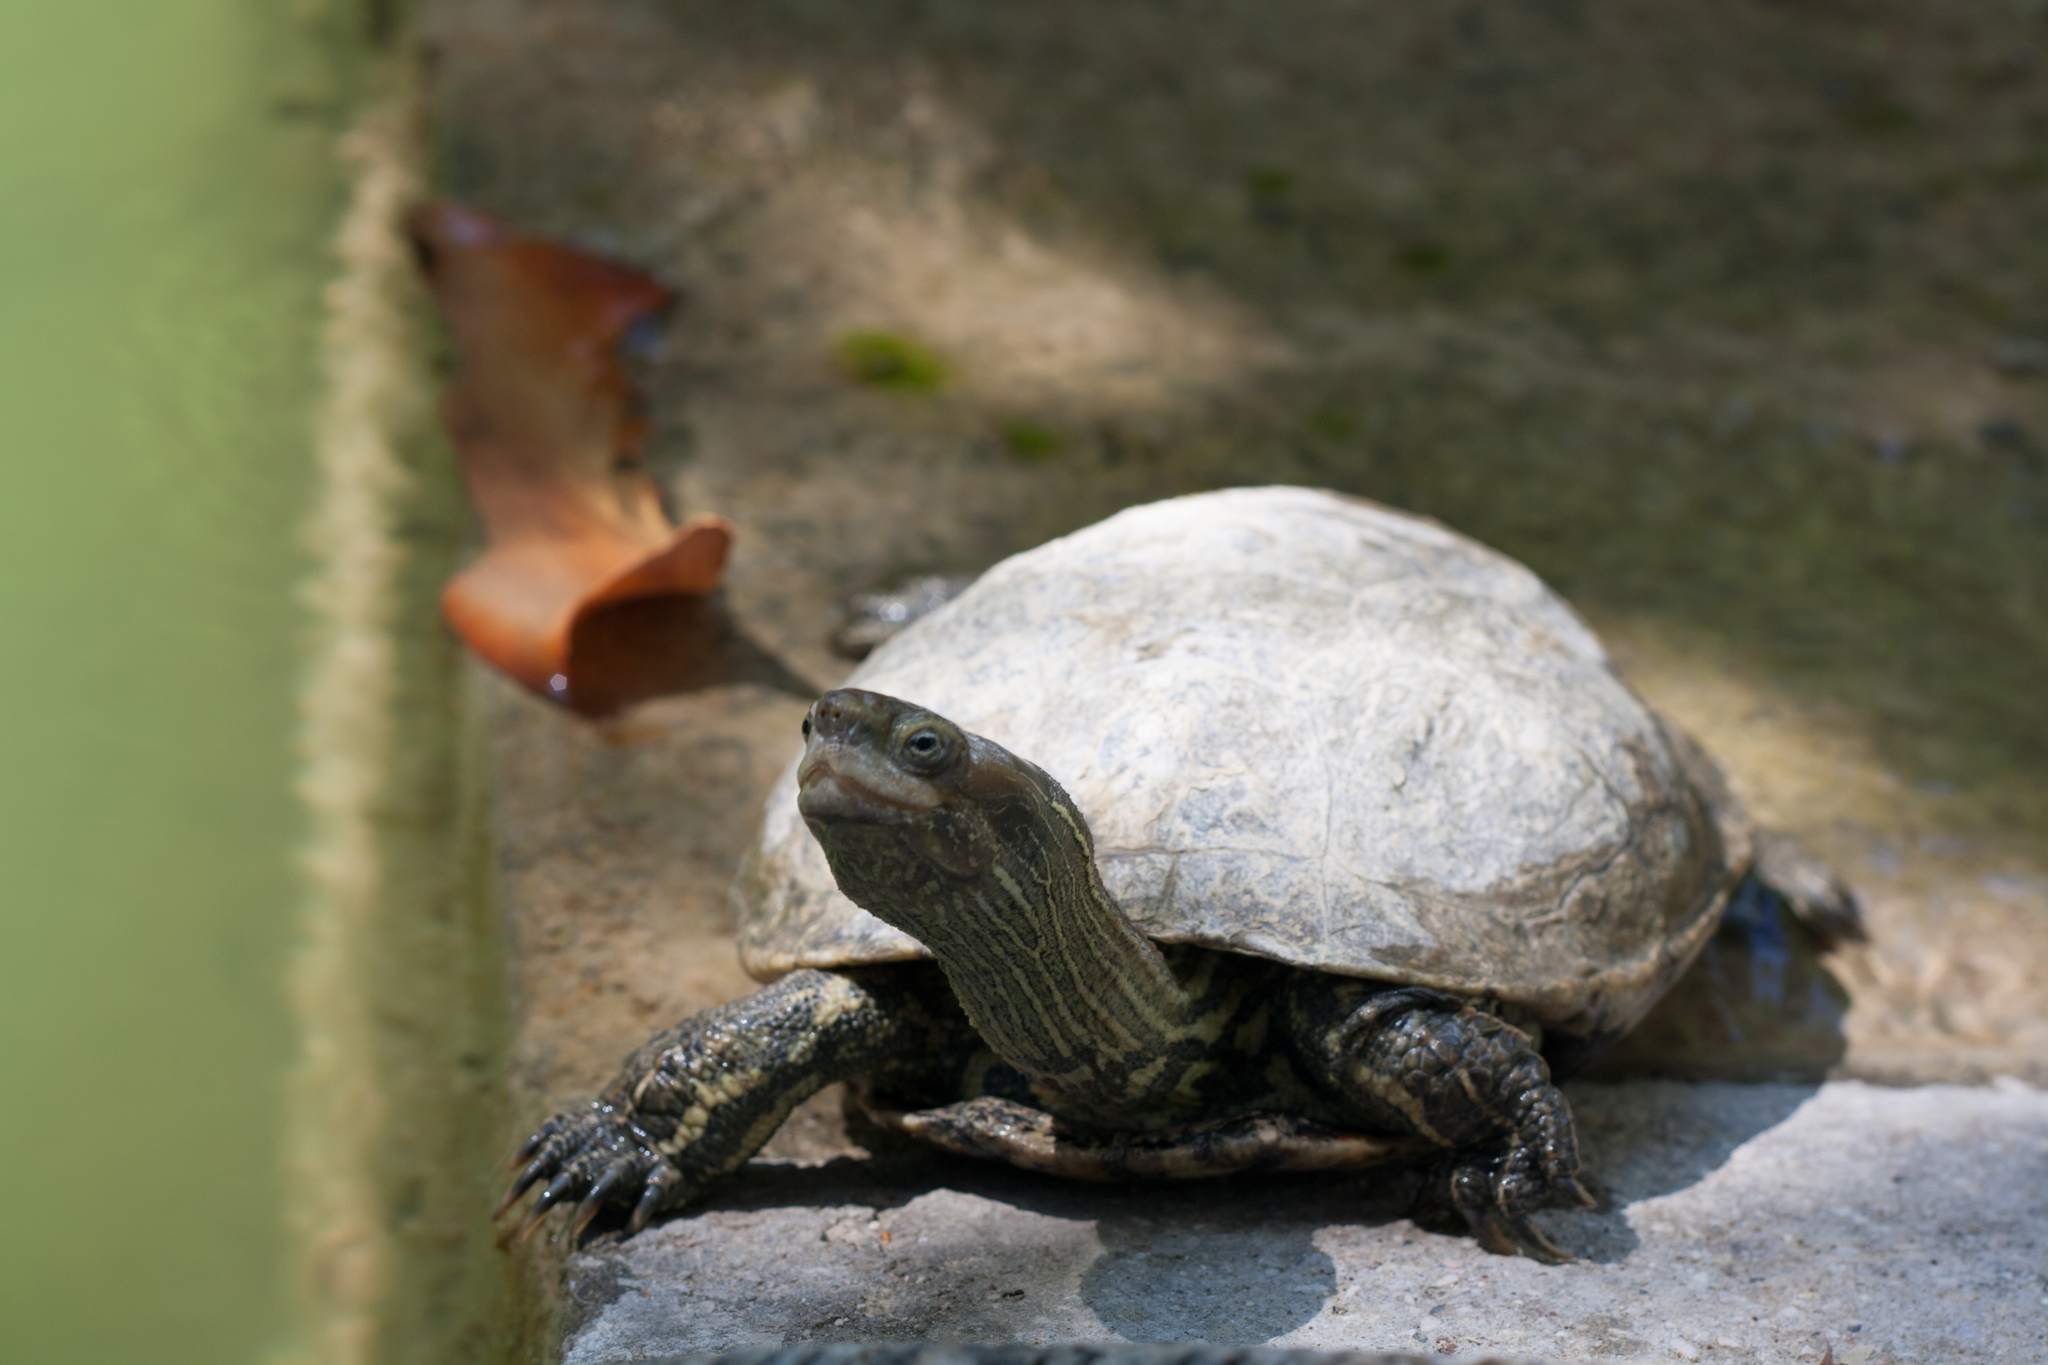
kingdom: Animalia
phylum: Chordata
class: Testudines
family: Geoemydidae
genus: Mauremys
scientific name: Mauremys rivulata
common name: Western caspian turtle
